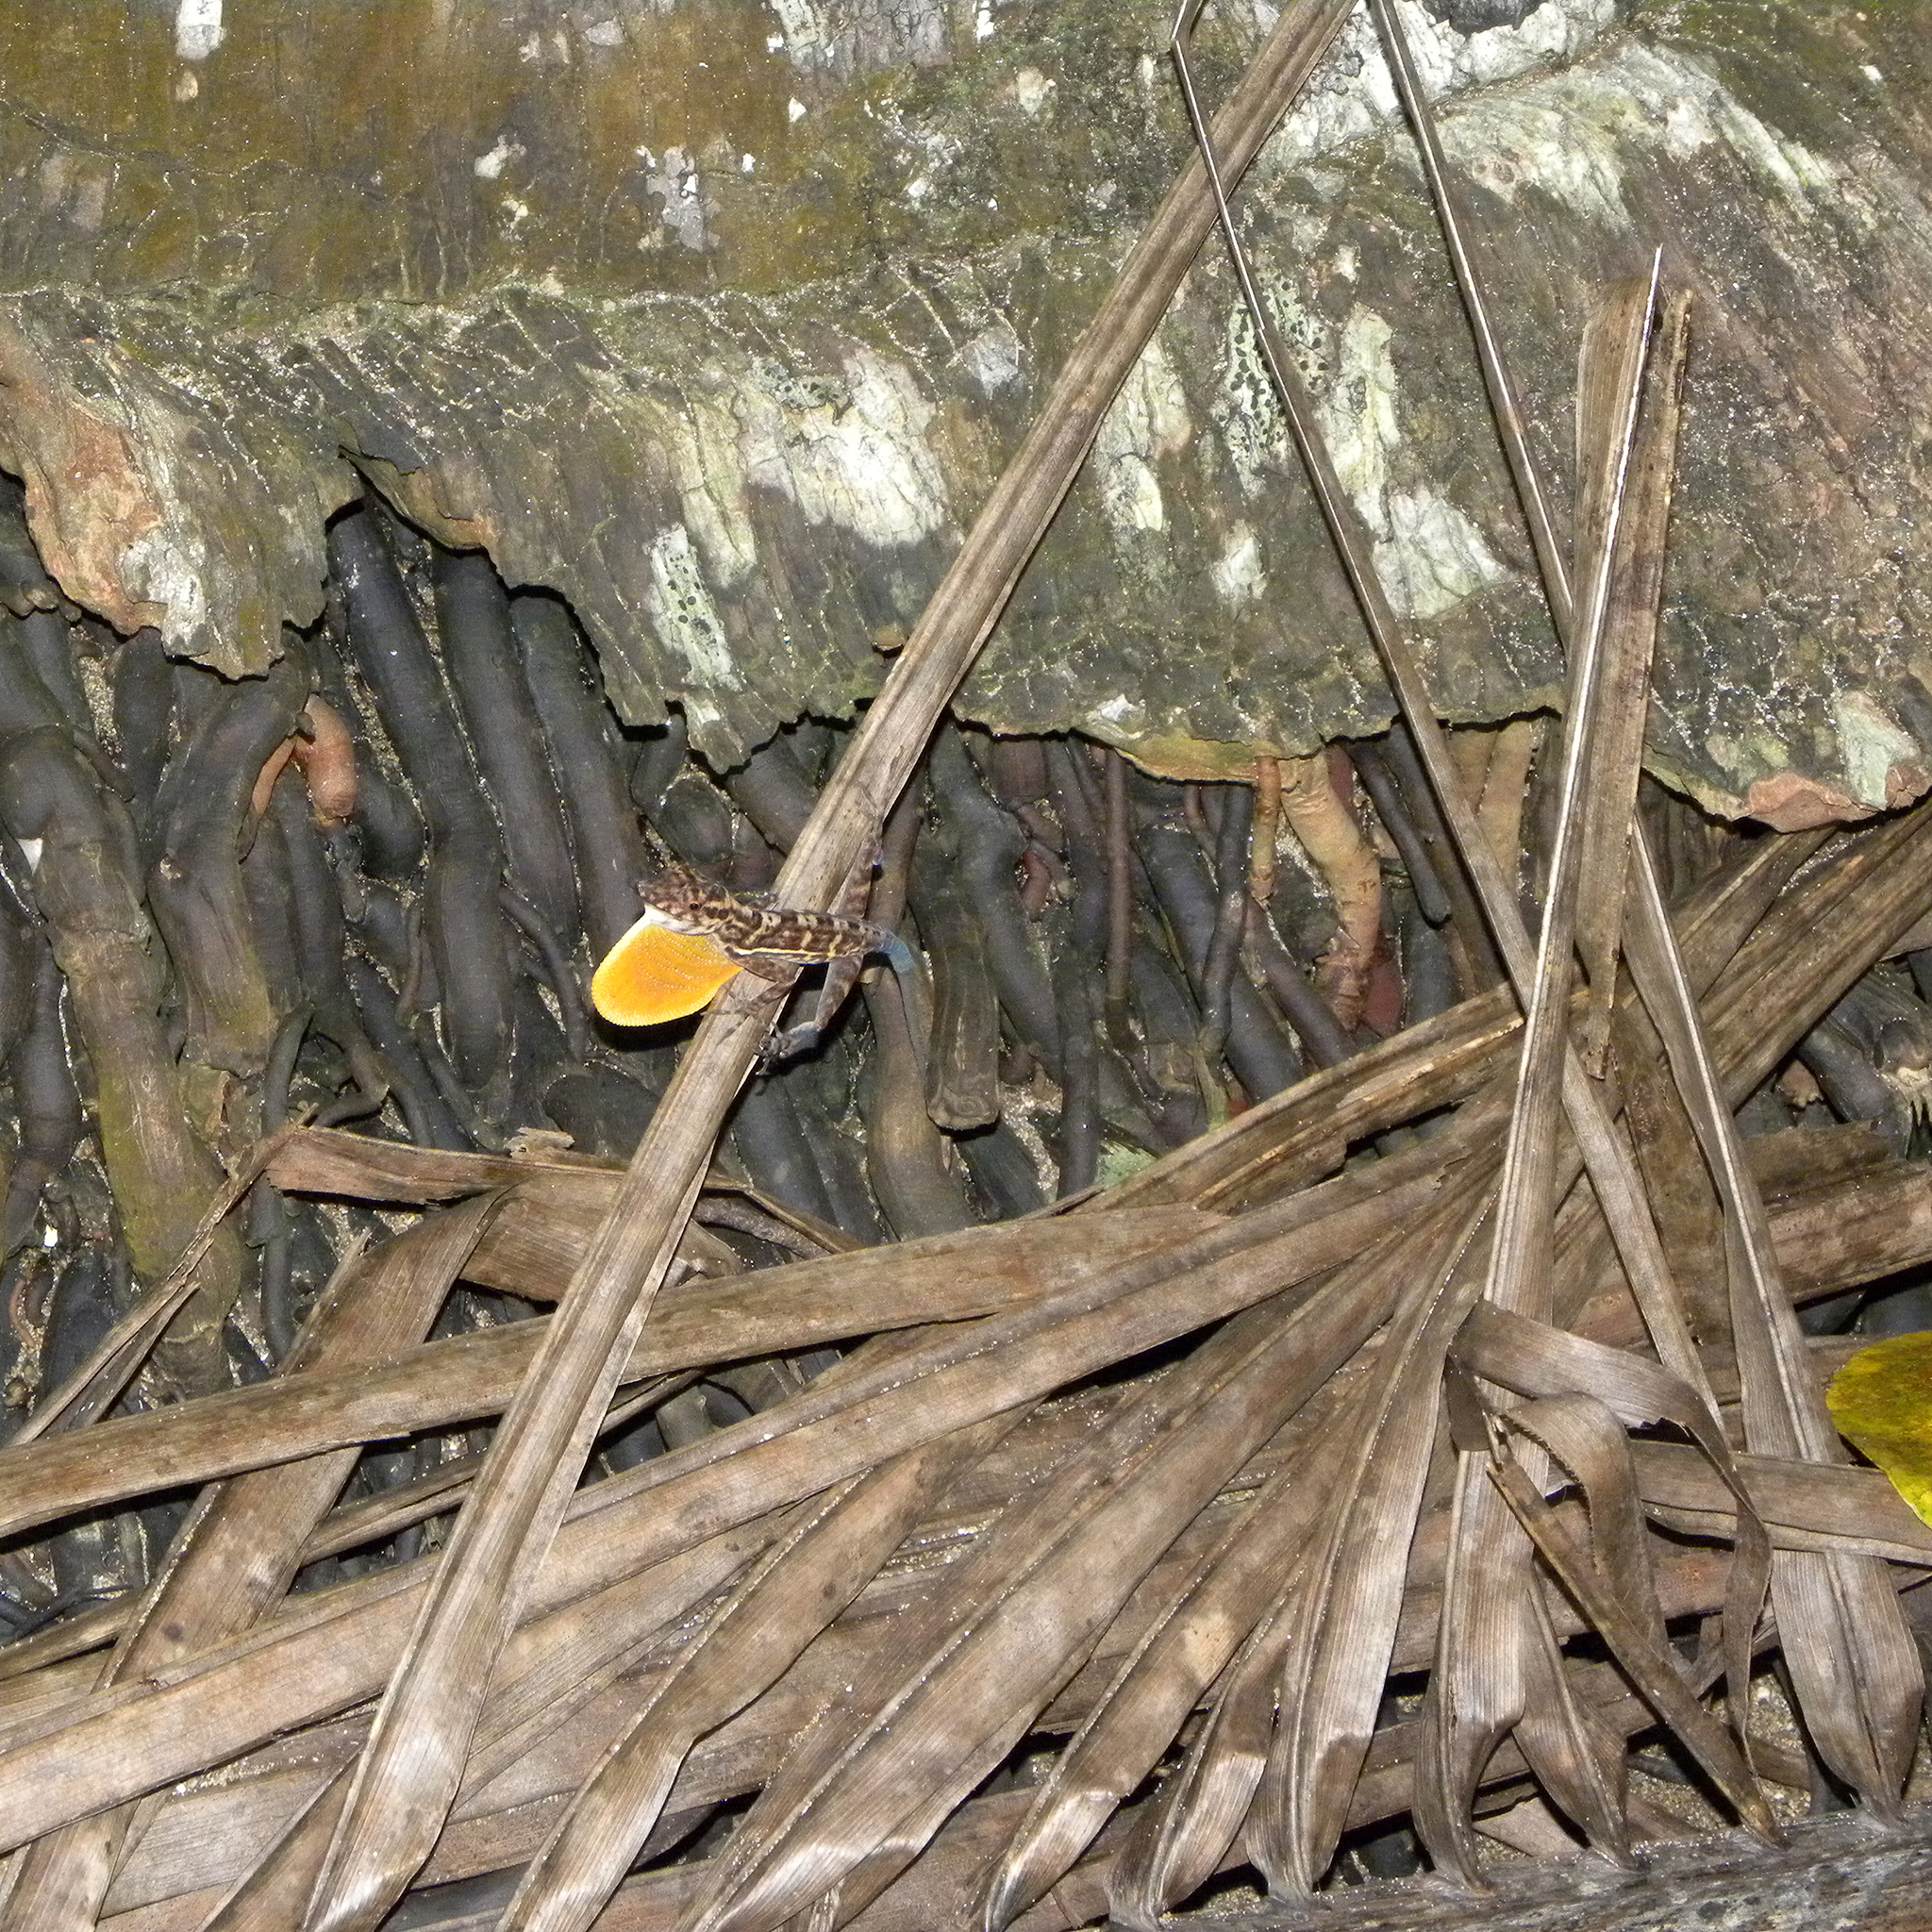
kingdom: Animalia
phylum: Chordata
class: Squamata
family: Dactyloidae
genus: Anolis
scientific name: Anolis osa
